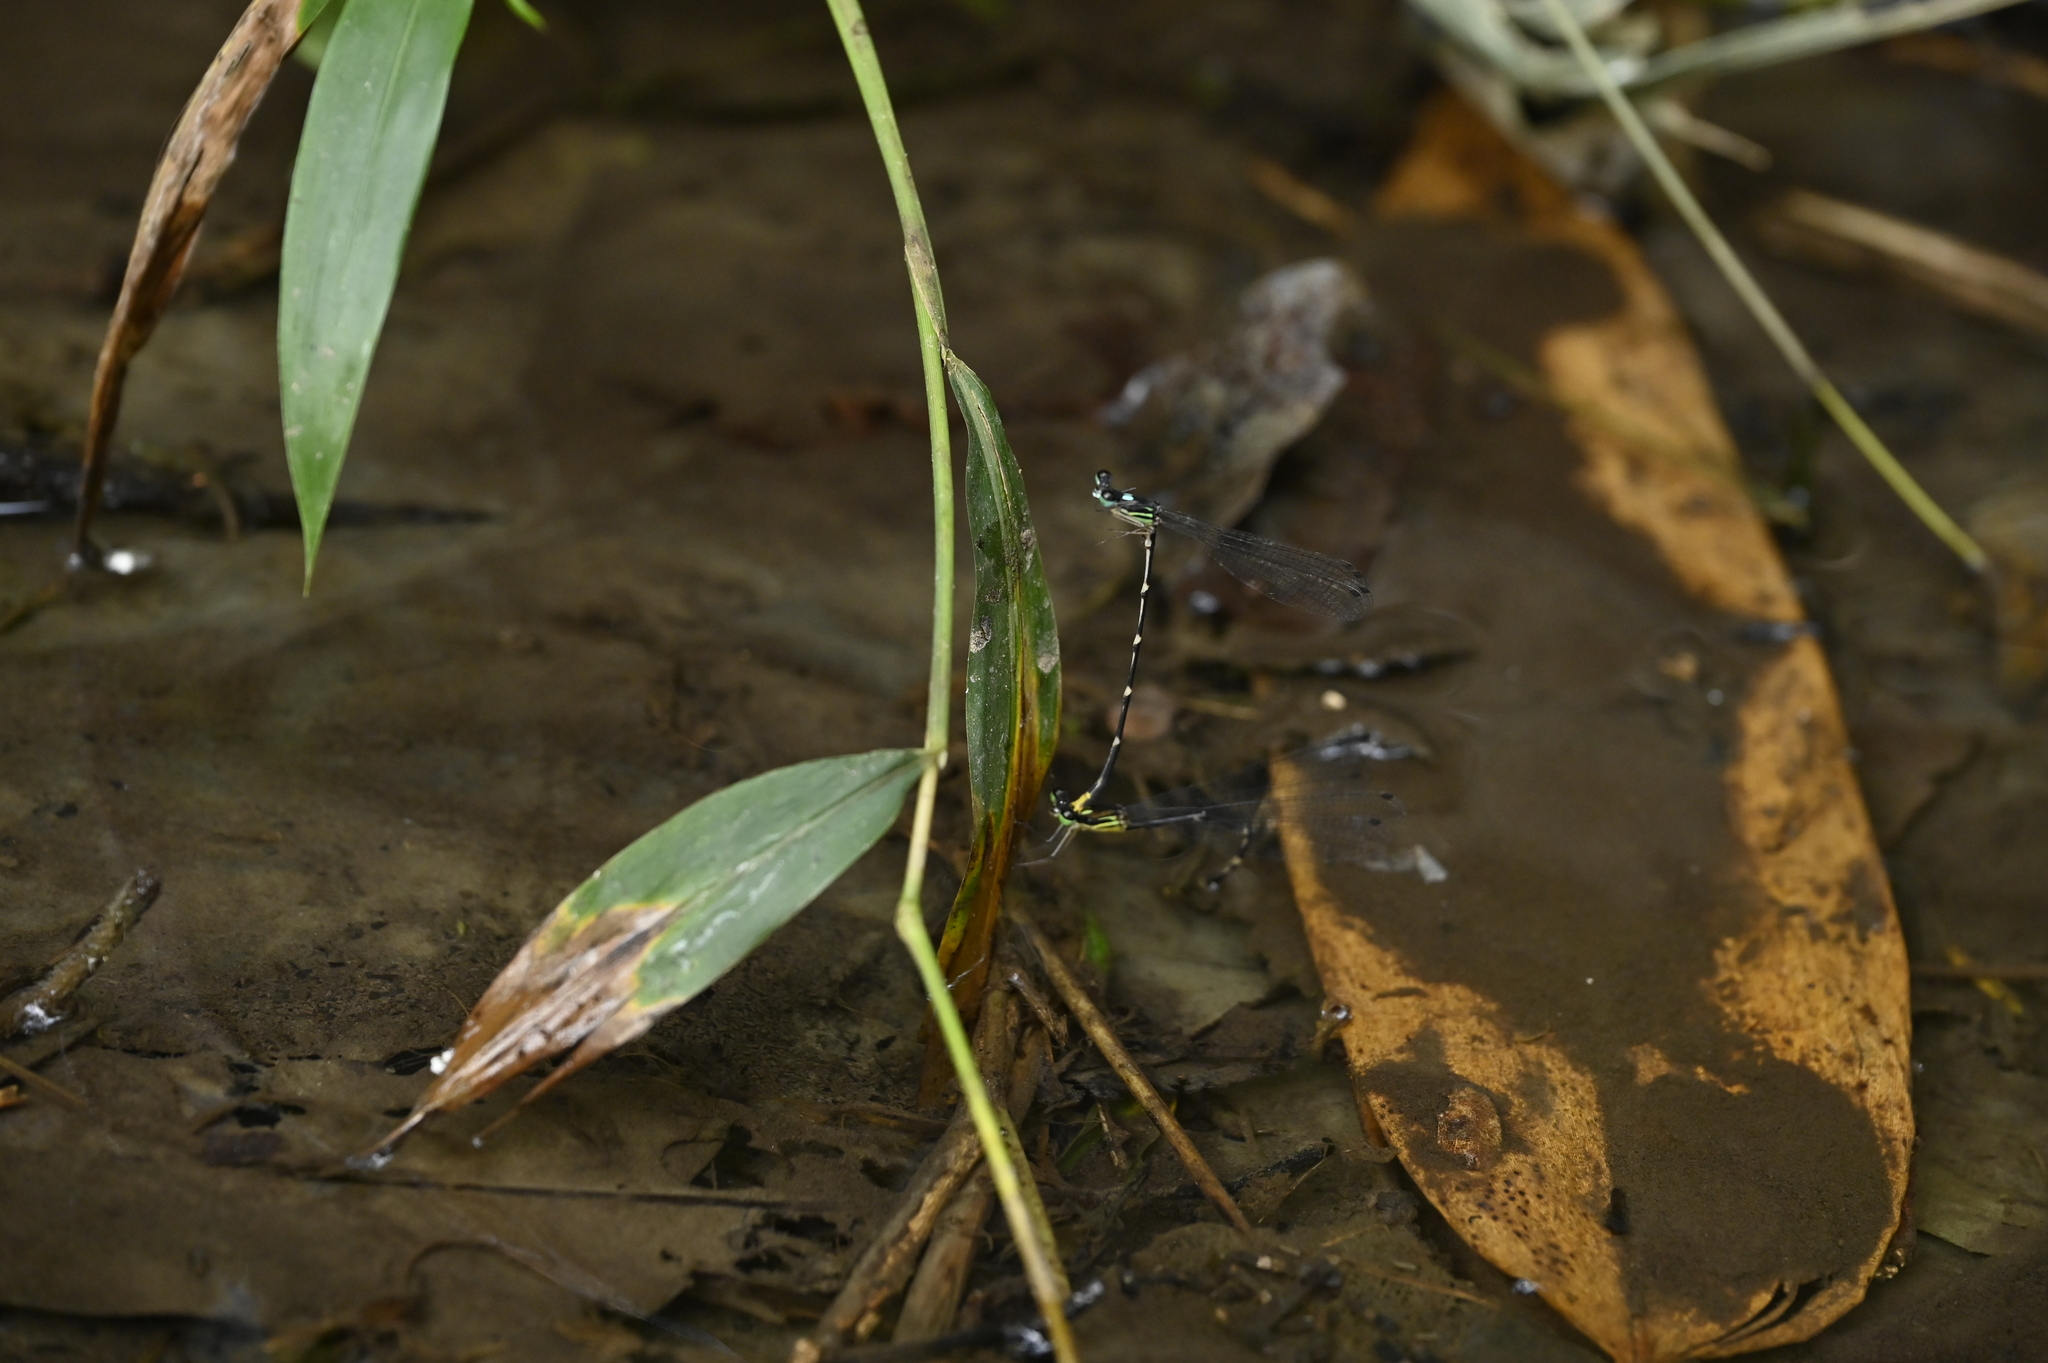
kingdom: Animalia
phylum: Arthropoda
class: Insecta
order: Odonata
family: Platycnemididae
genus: Coeliccia
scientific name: Coeliccia flavicauda
